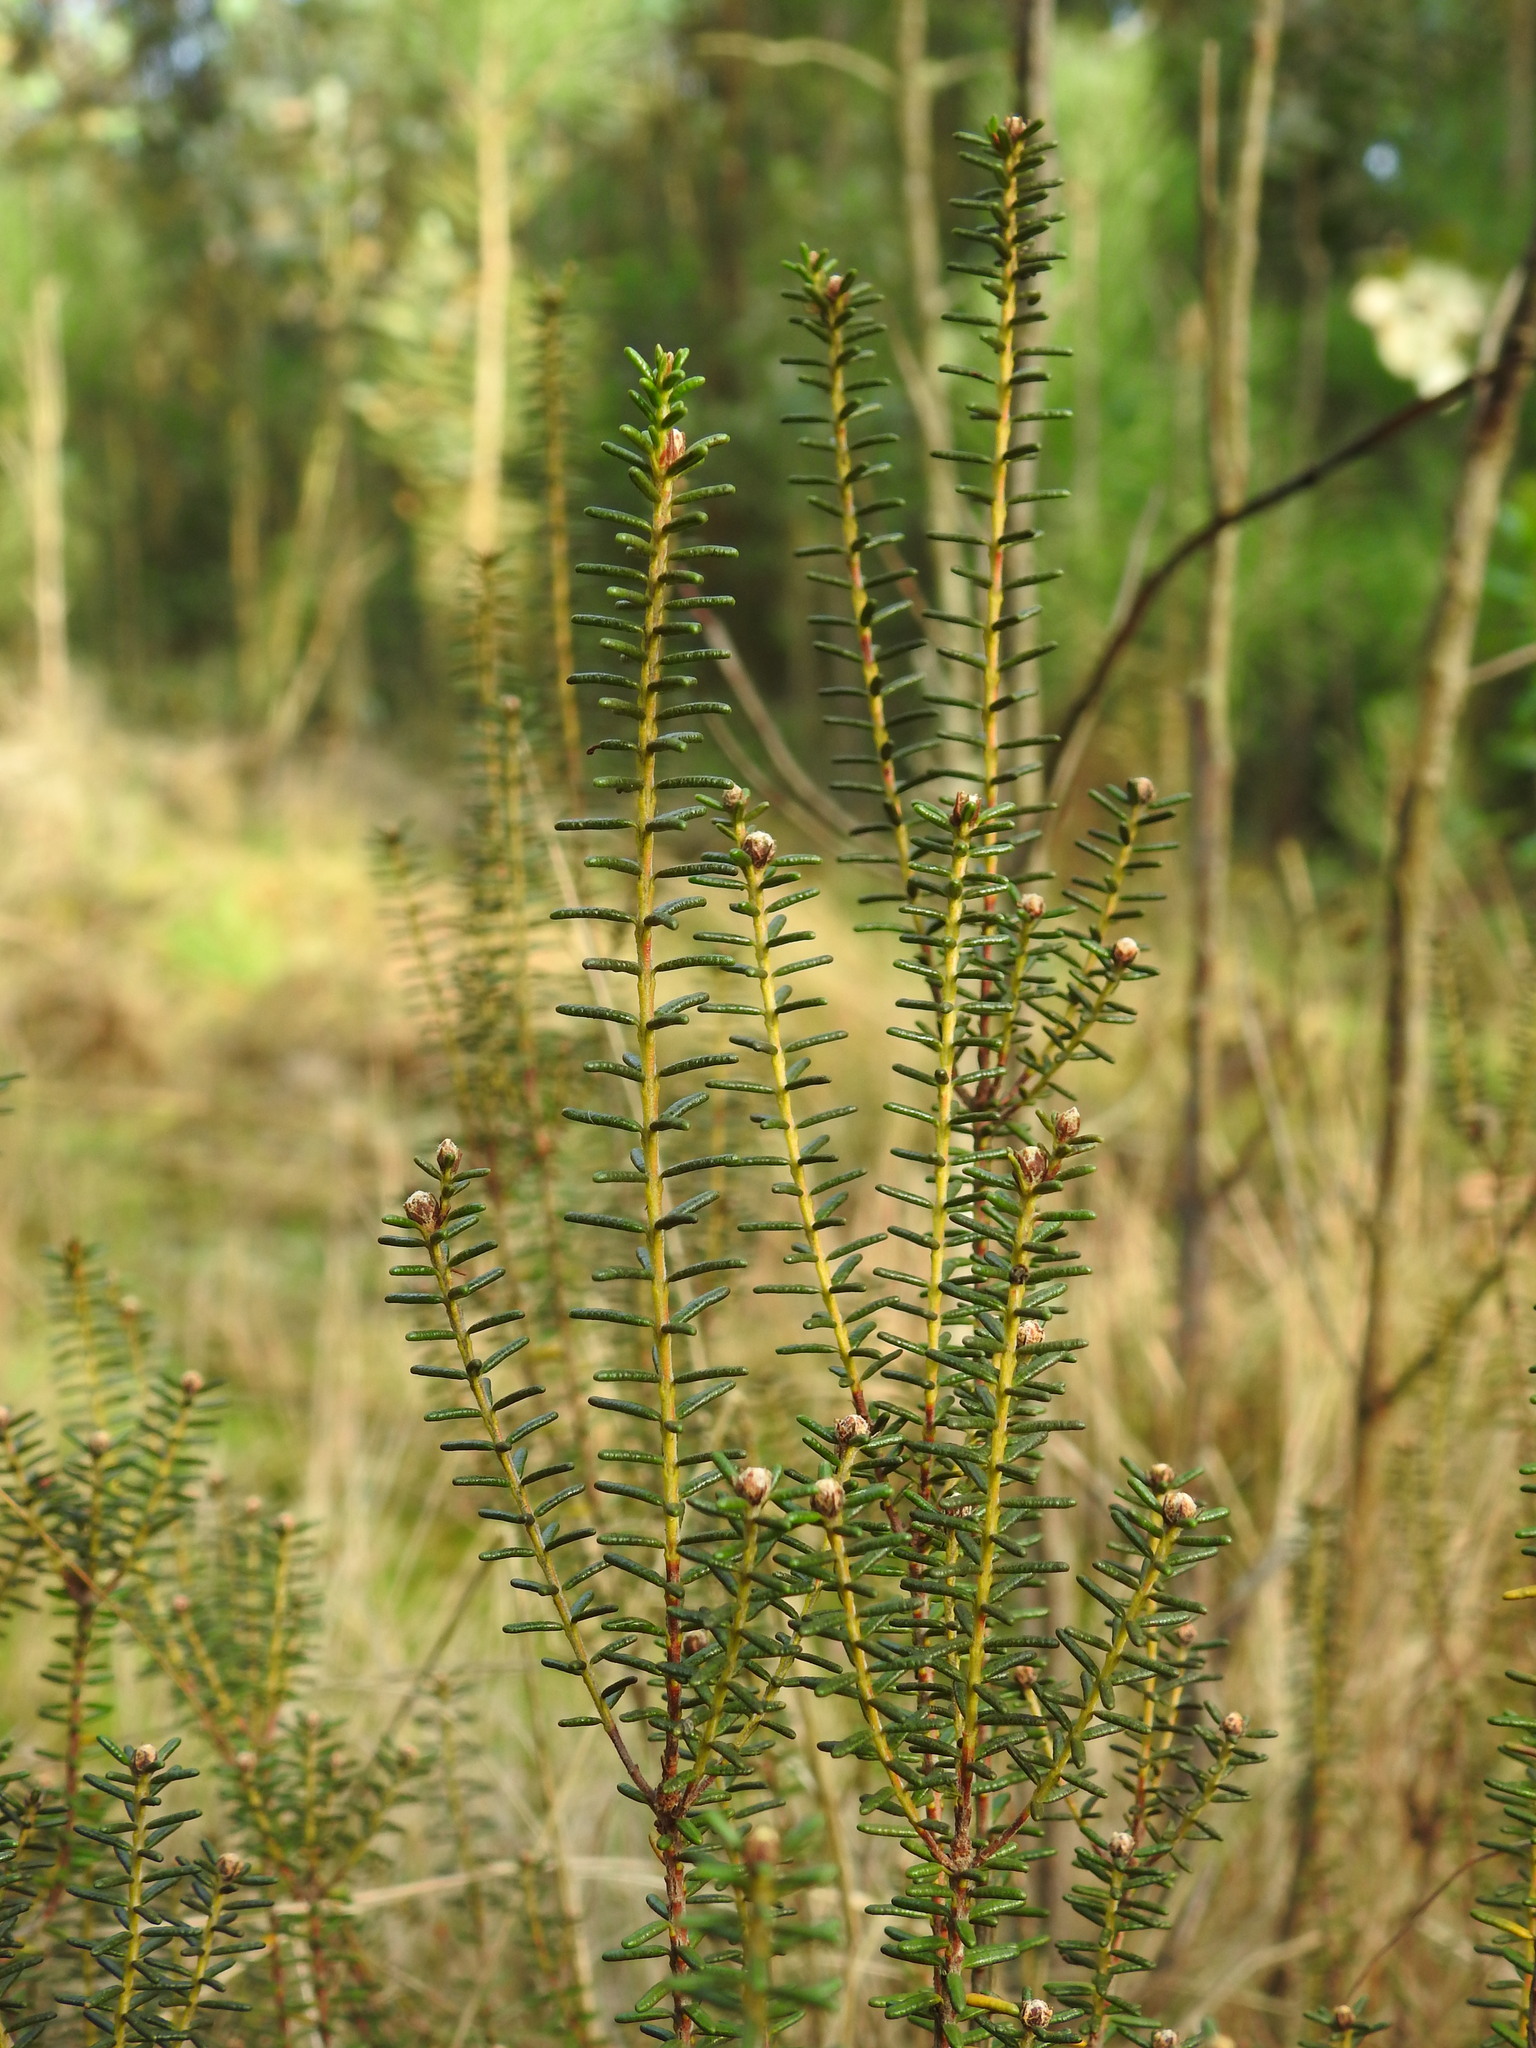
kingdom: Plantae
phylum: Tracheophyta
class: Magnoliopsida
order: Ericales
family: Ericaceae
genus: Corema
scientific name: Corema album
